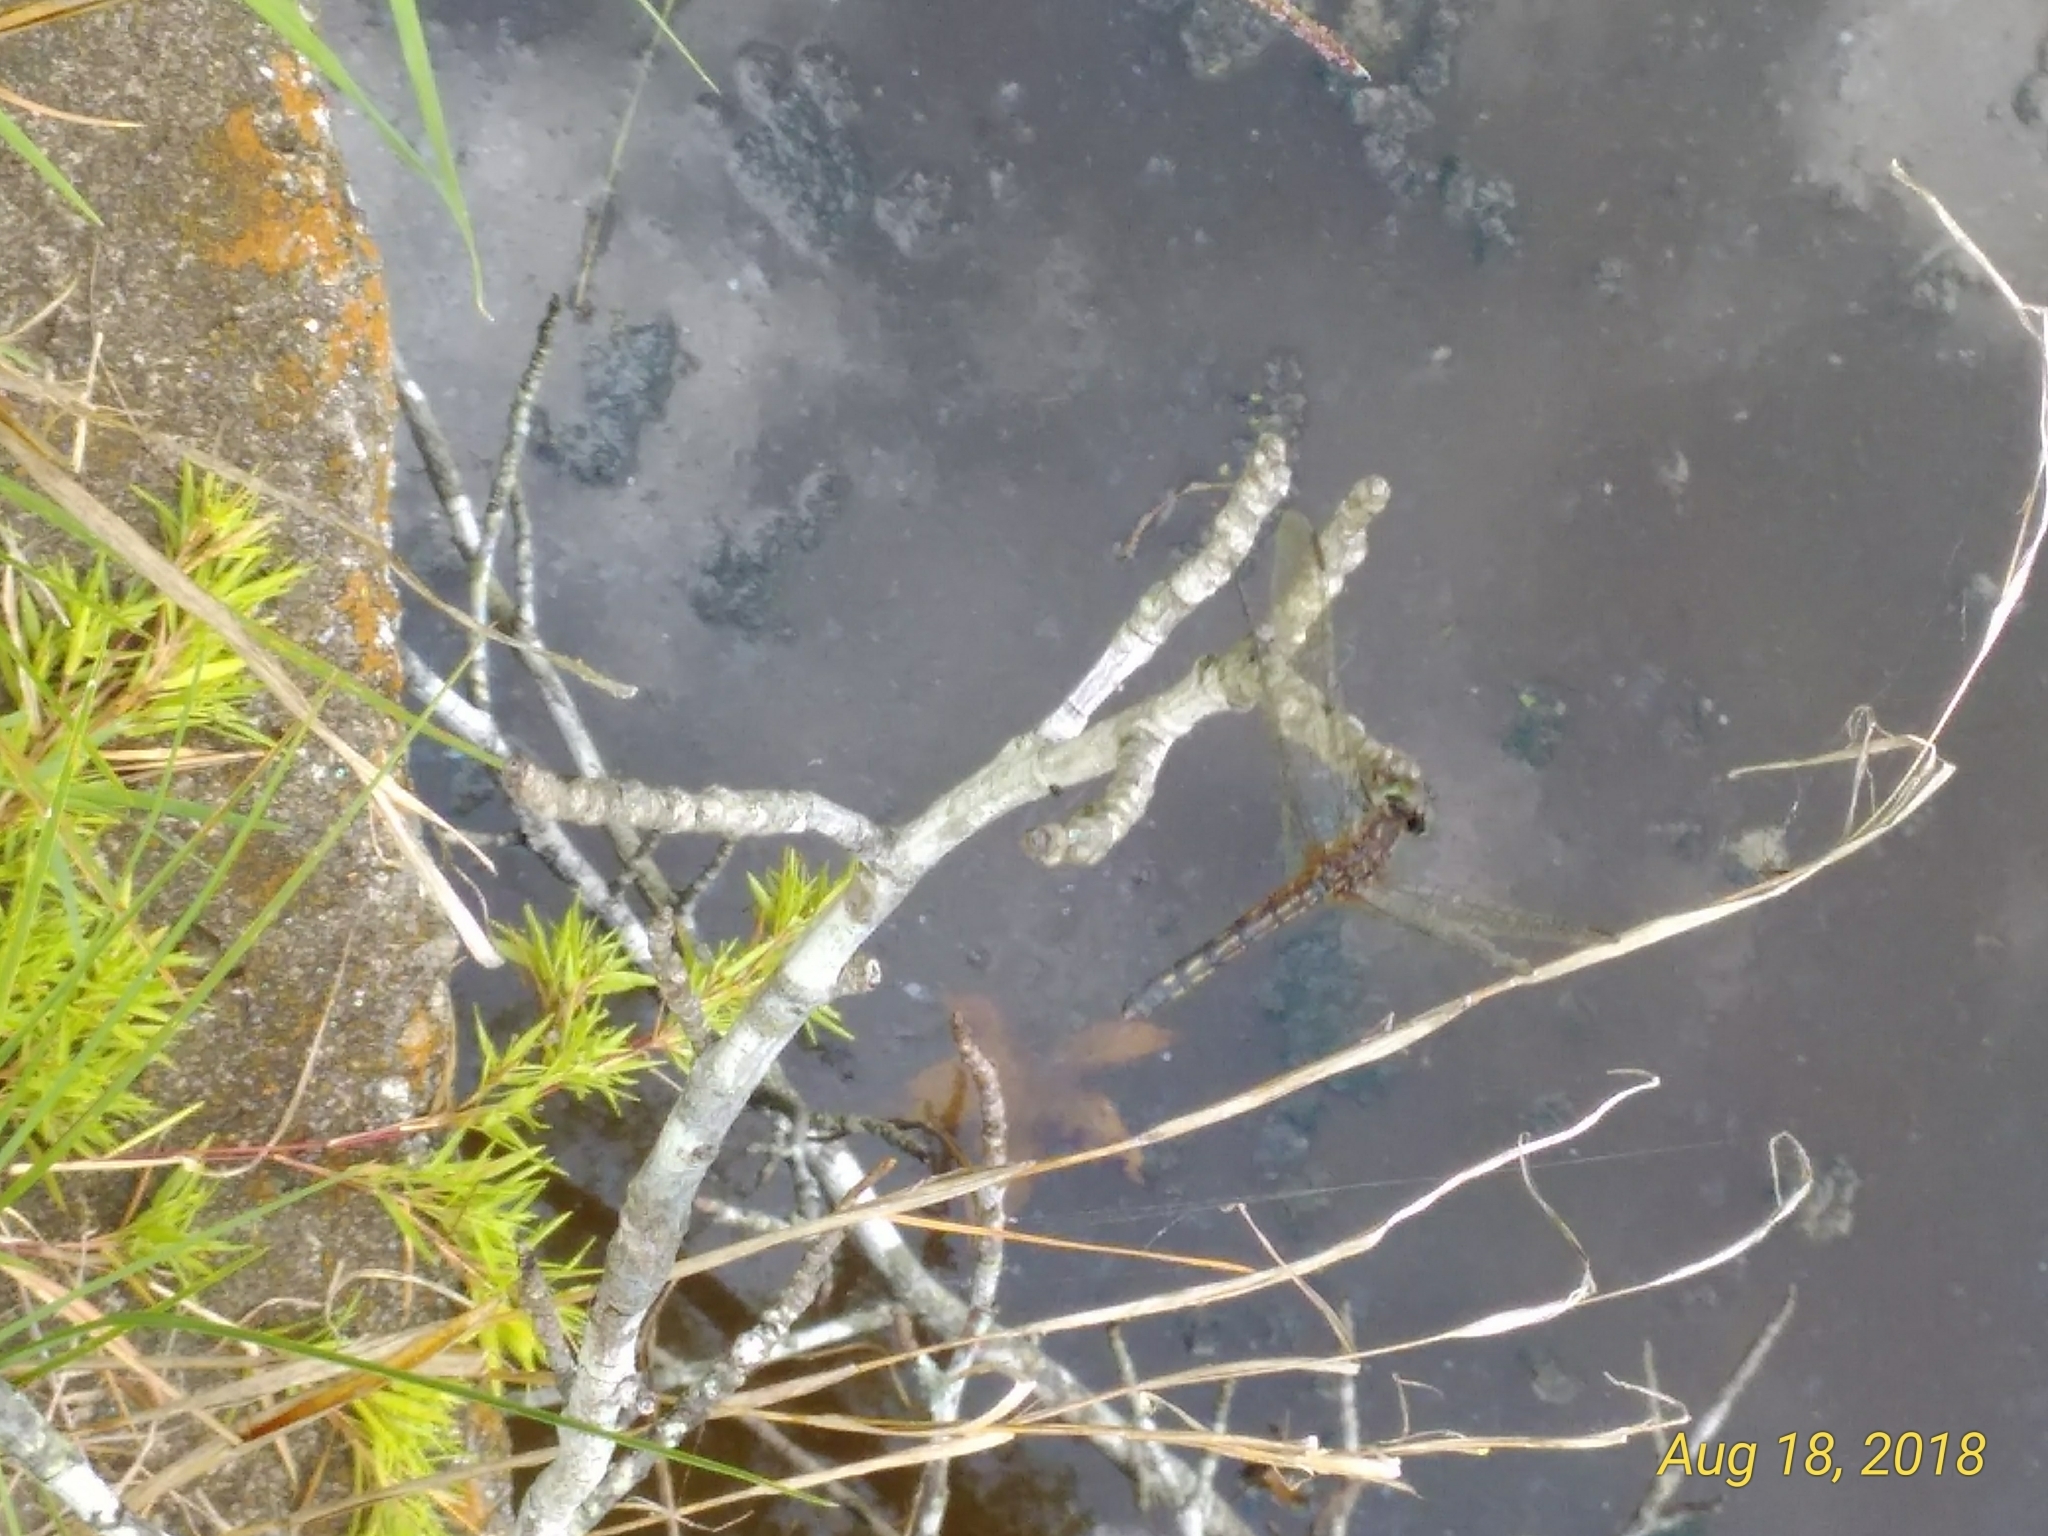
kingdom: Animalia
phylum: Arthropoda
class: Insecta
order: Odonata
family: Libellulidae
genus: Pachydiplax
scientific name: Pachydiplax longipennis
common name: Blue dasher
